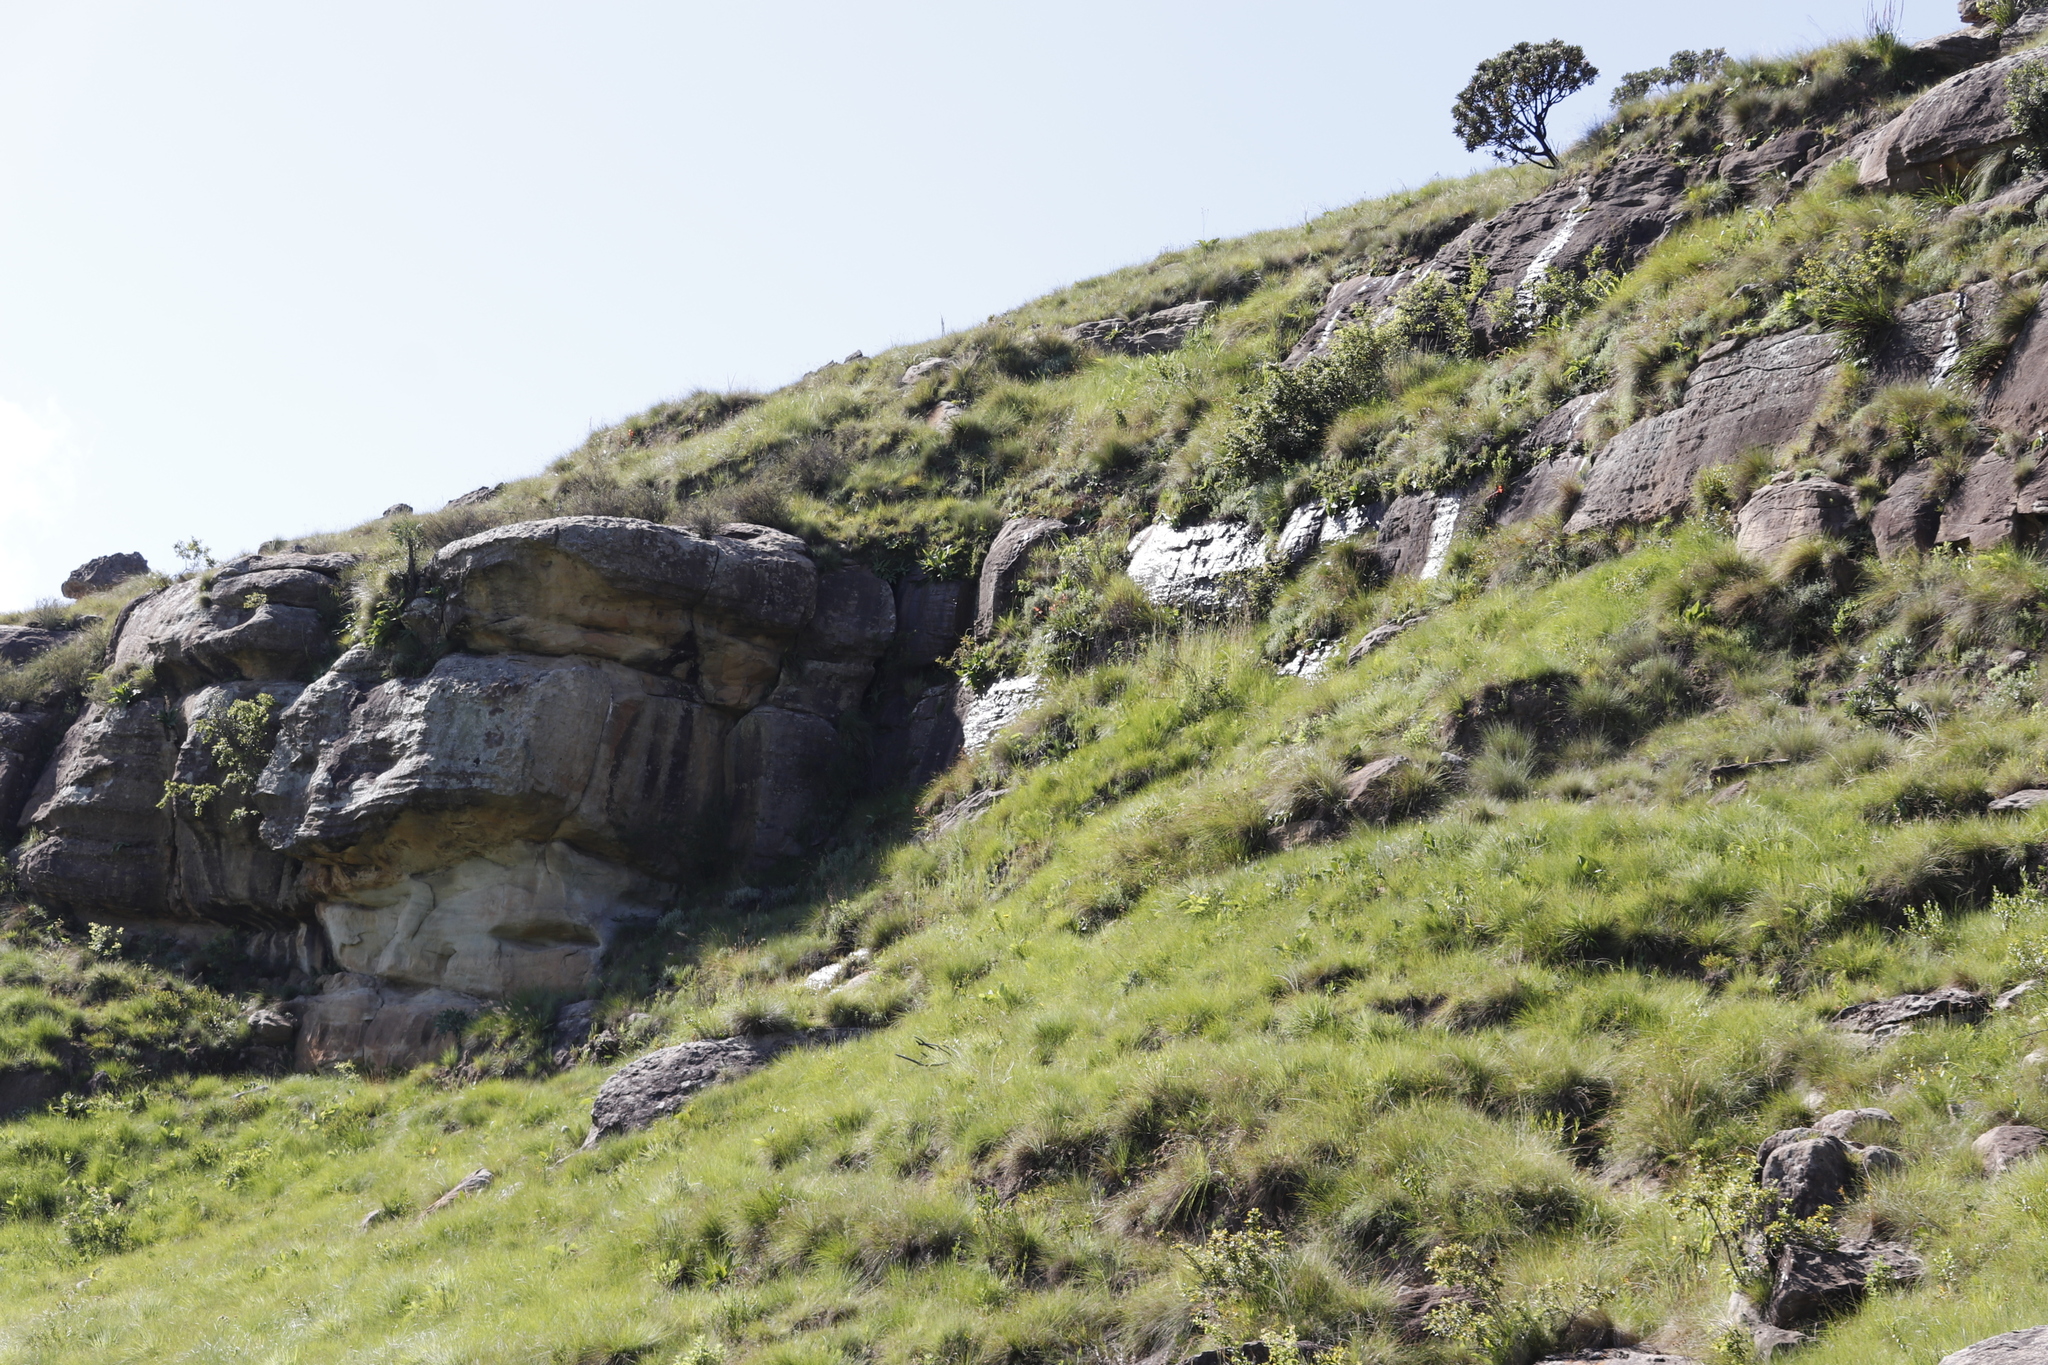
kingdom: Plantae
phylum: Tracheophyta
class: Liliopsida
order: Asparagales
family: Iridaceae
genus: Watsonia
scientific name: Watsonia pillansii
